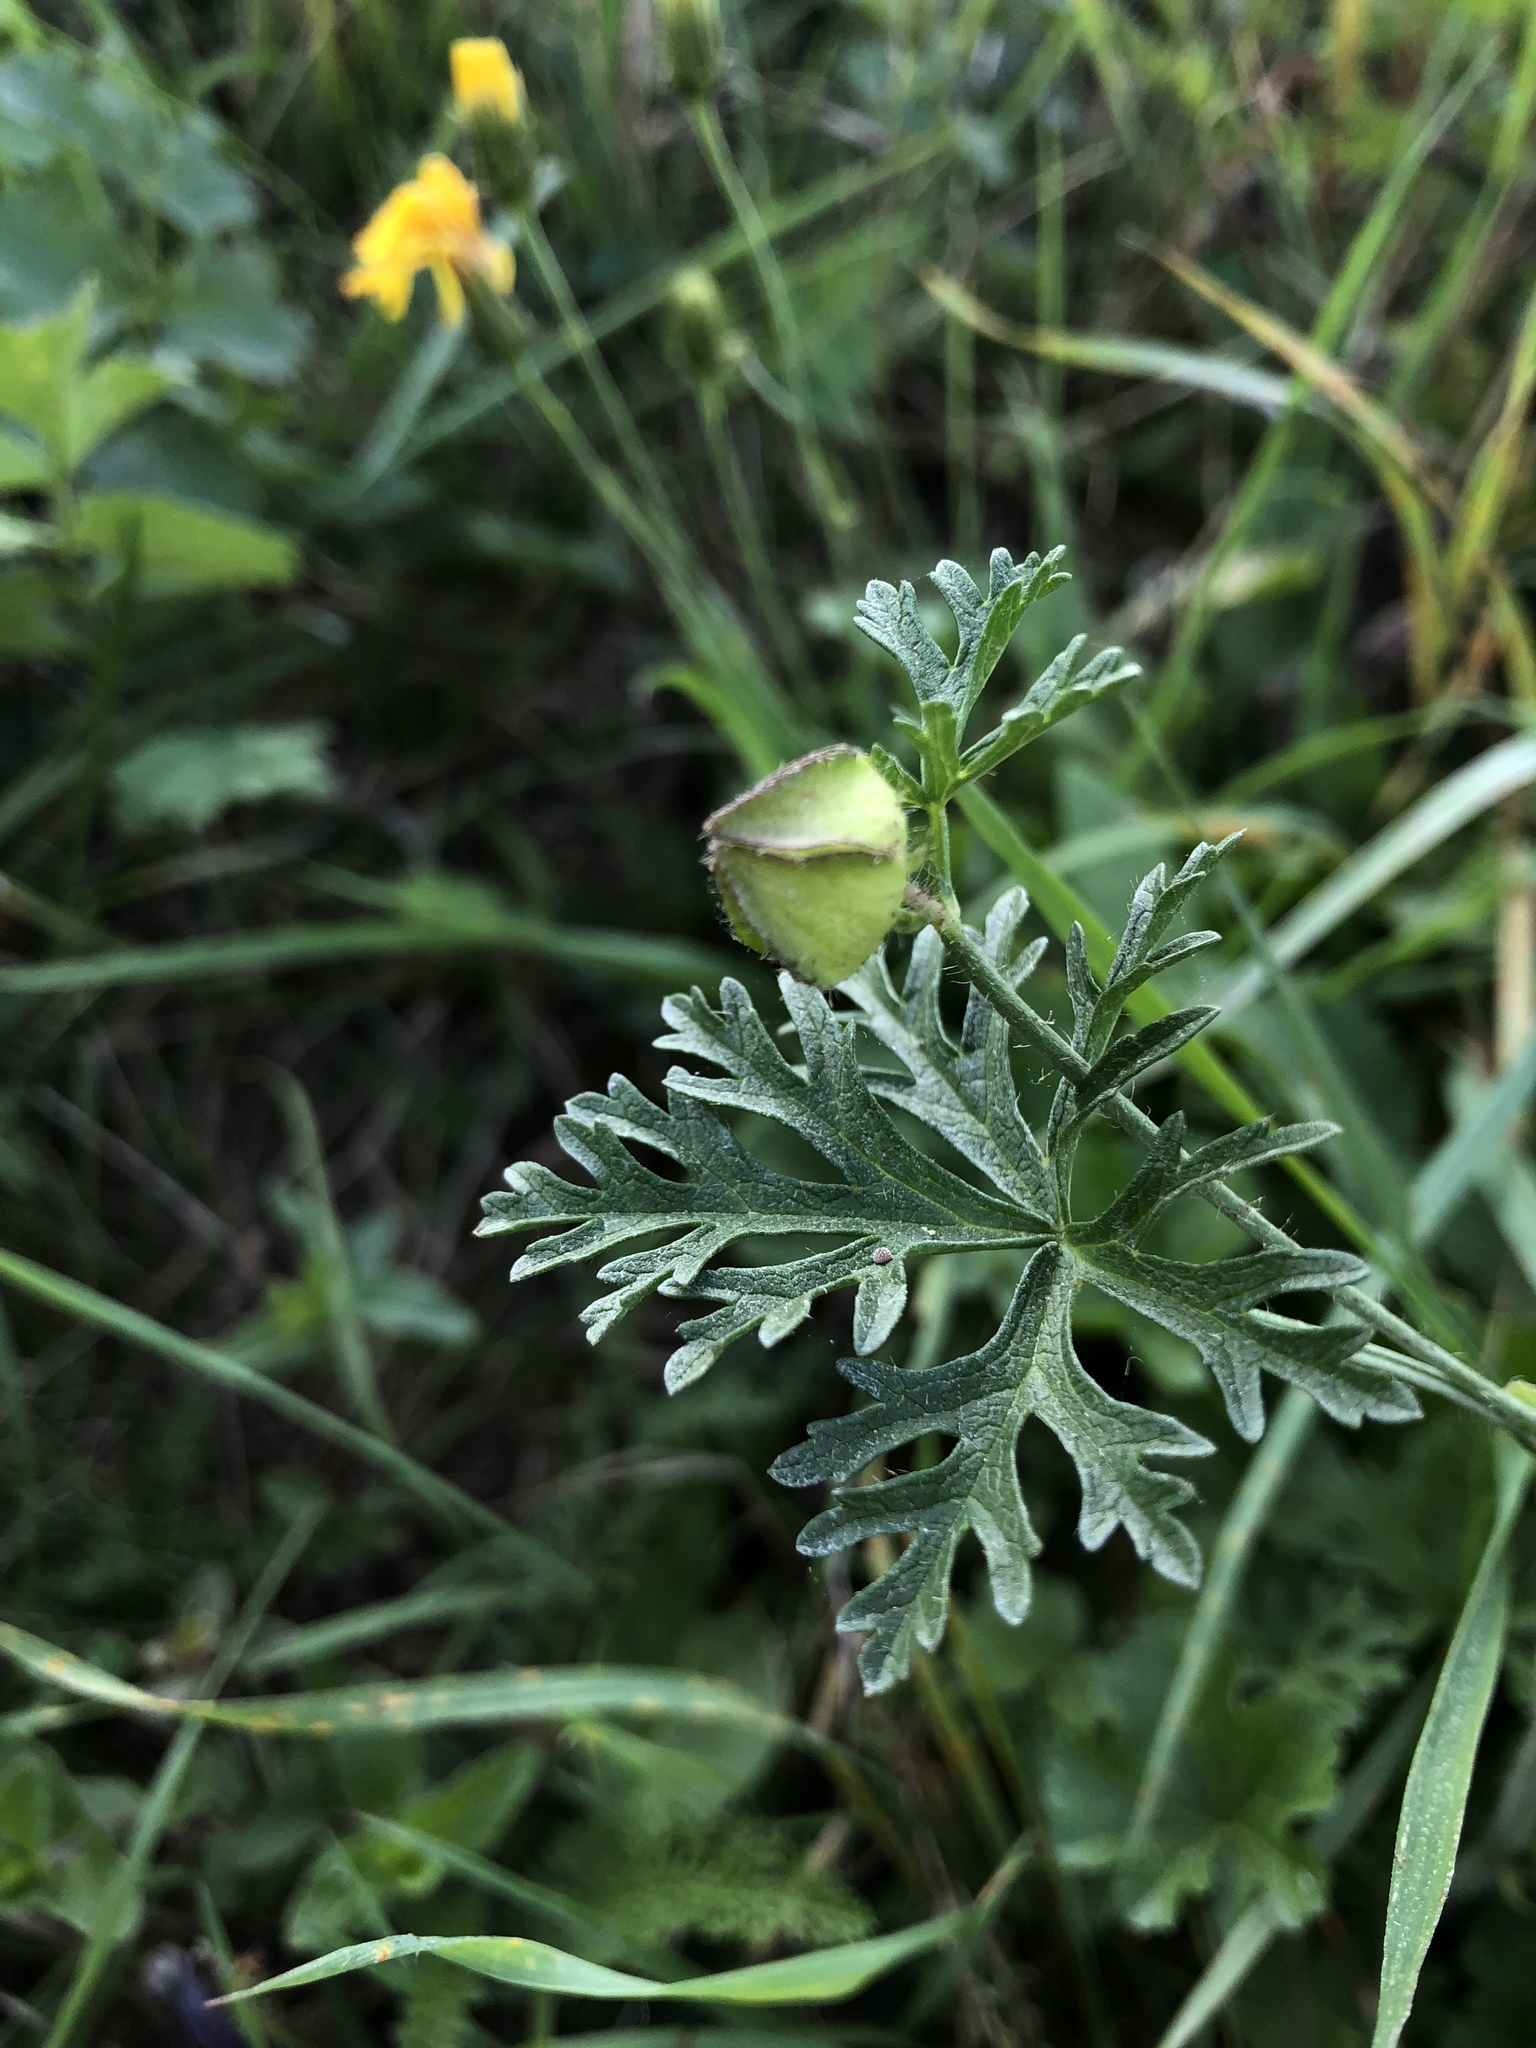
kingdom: Plantae
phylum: Tracheophyta
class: Magnoliopsida
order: Malvales
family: Malvaceae
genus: Malva
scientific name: Malva moschata
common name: Musk mallow
